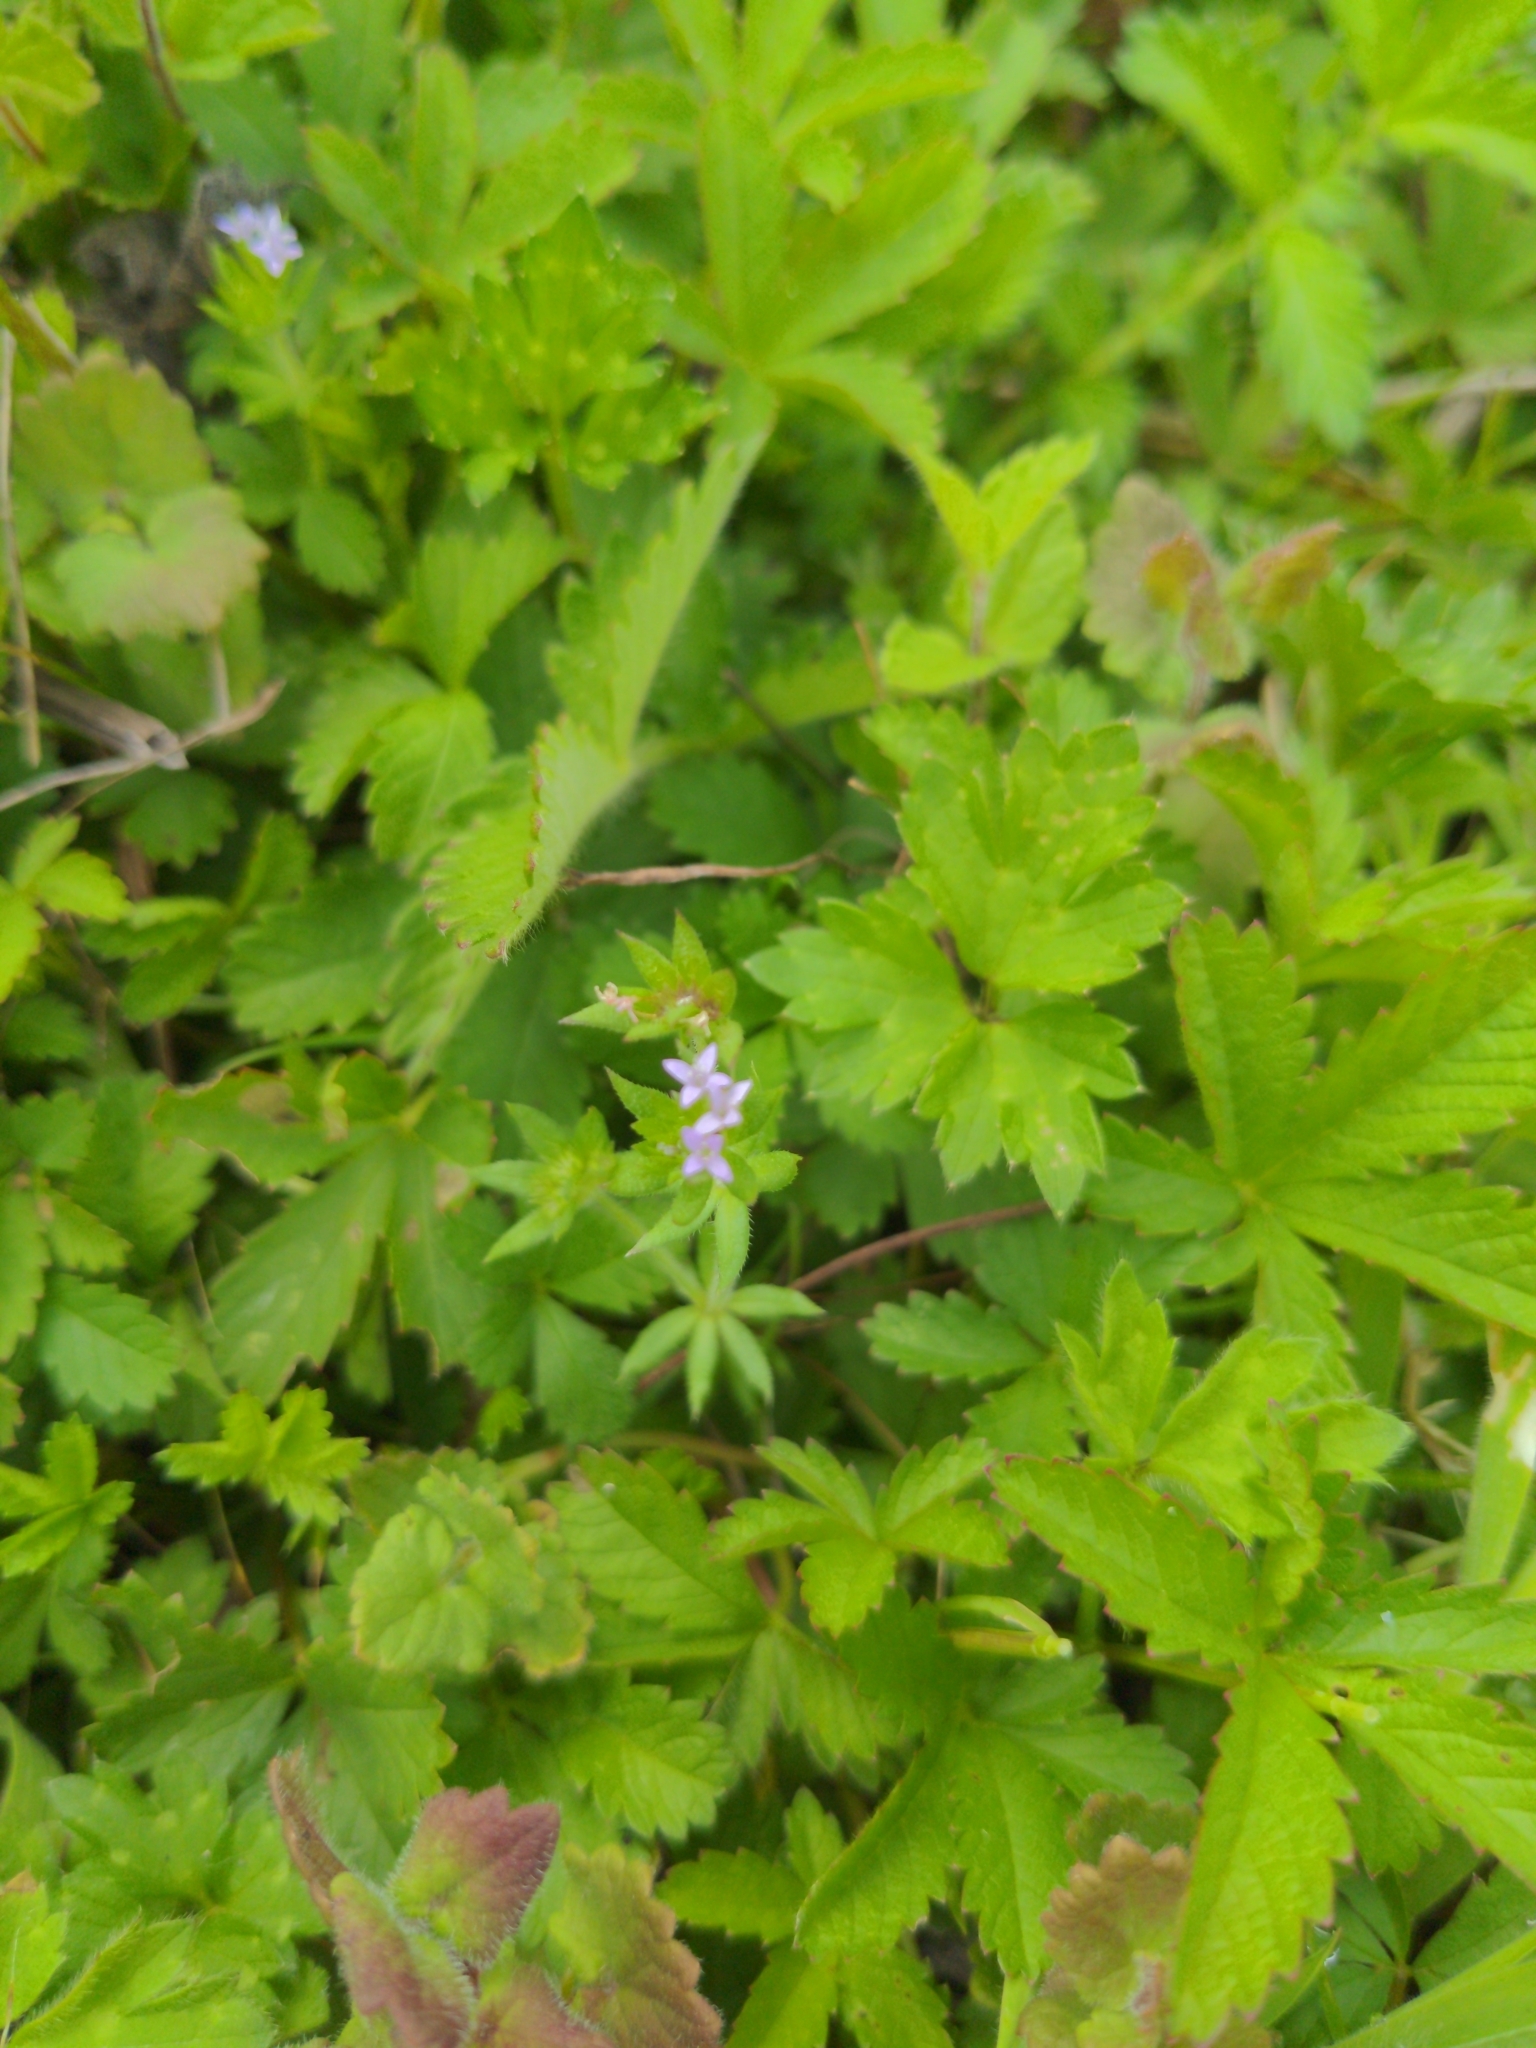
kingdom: Plantae
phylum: Tracheophyta
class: Magnoliopsida
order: Gentianales
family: Rubiaceae
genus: Sherardia
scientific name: Sherardia arvensis
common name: Field madder
